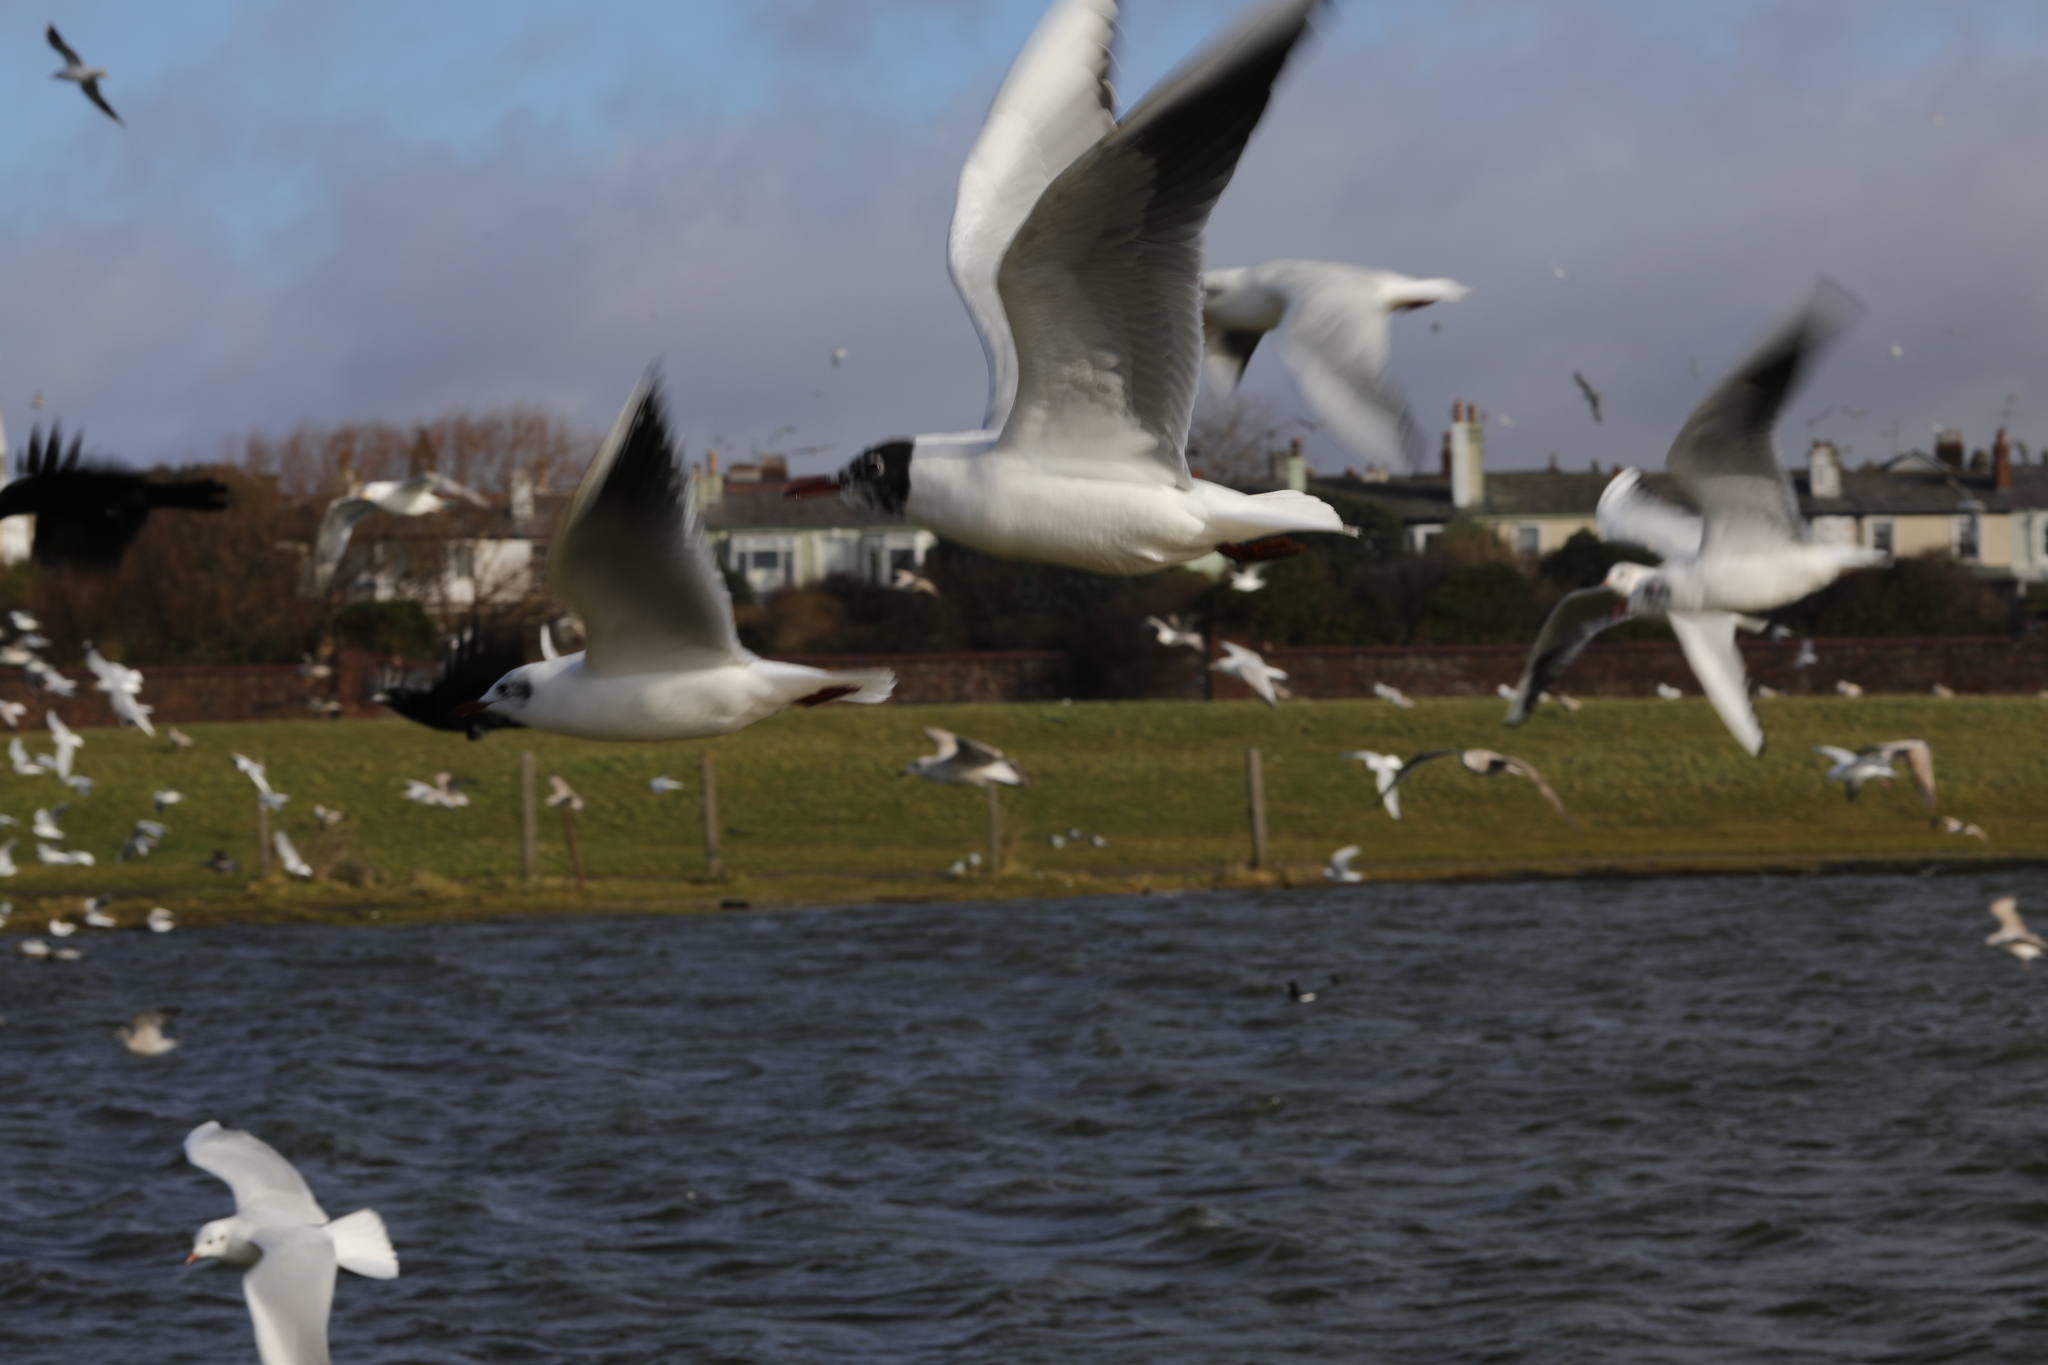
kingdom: Animalia
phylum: Chordata
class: Aves
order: Charadriiformes
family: Laridae
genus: Chroicocephalus
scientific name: Chroicocephalus ridibundus
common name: Black-headed gull
